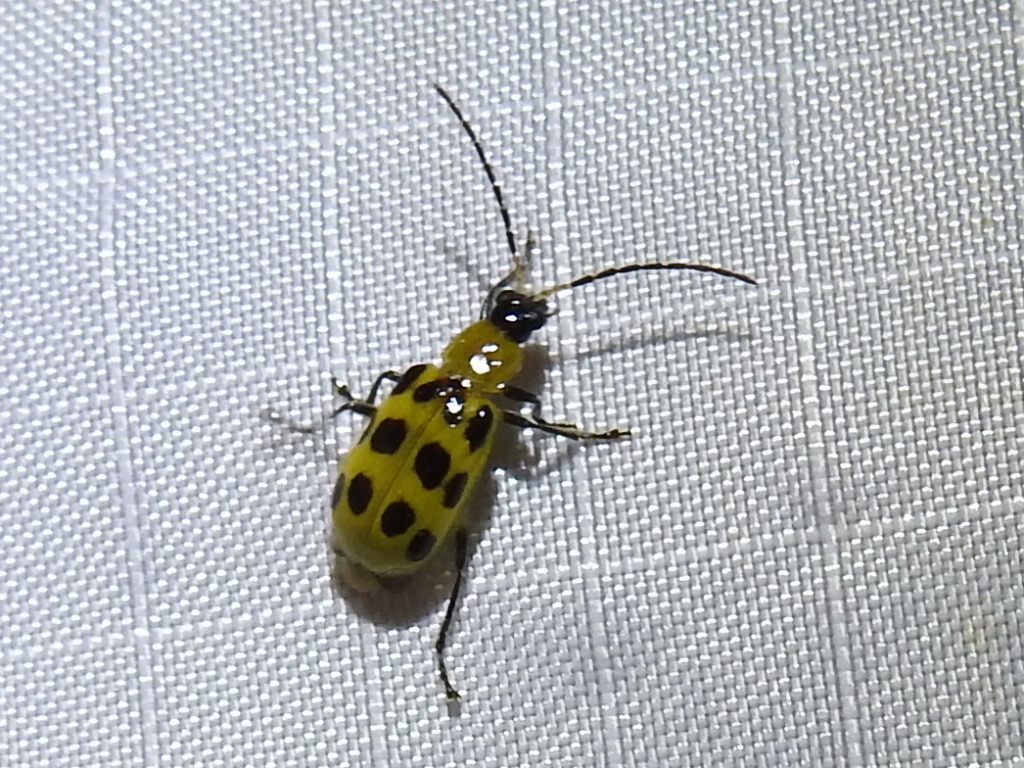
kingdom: Animalia
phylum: Arthropoda
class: Insecta
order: Coleoptera
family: Chrysomelidae
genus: Diabrotica
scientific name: Diabrotica undecimpunctata
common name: Spotted cucumber beetle
